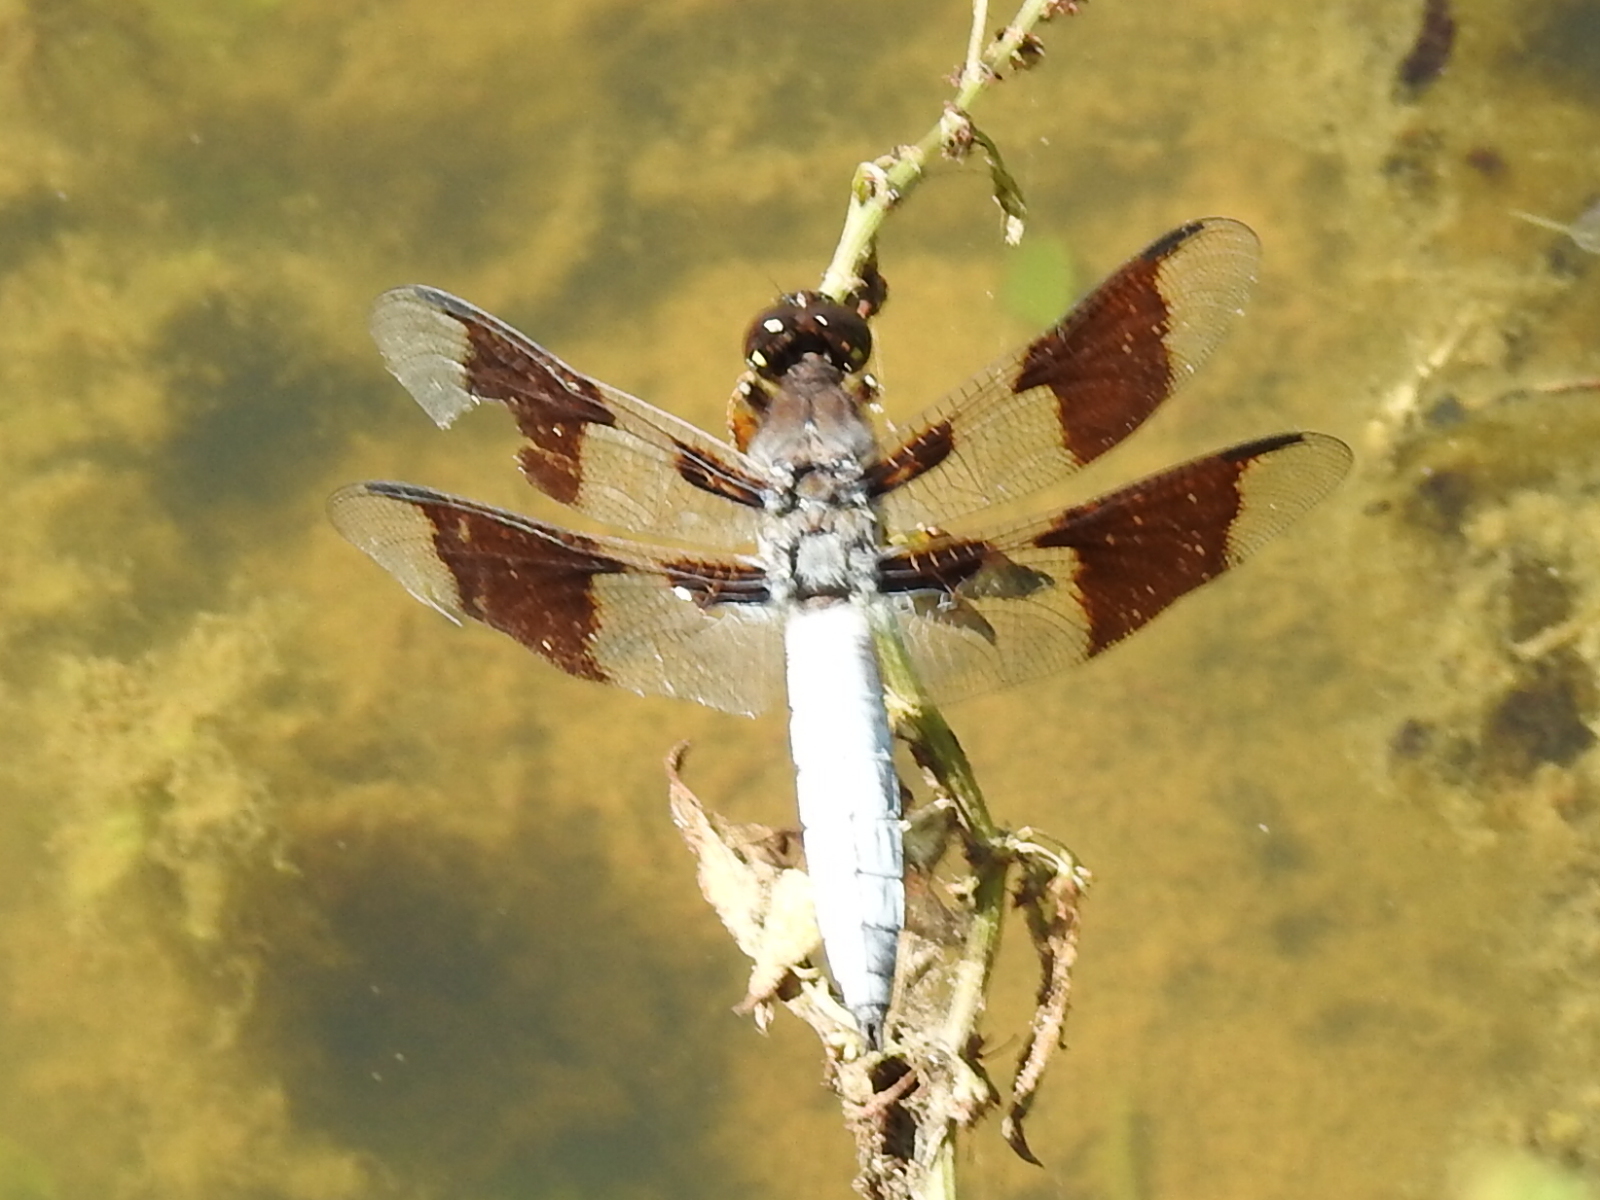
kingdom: Animalia
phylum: Arthropoda
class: Insecta
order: Odonata
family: Libellulidae
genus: Plathemis
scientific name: Plathemis lydia
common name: Common whitetail
